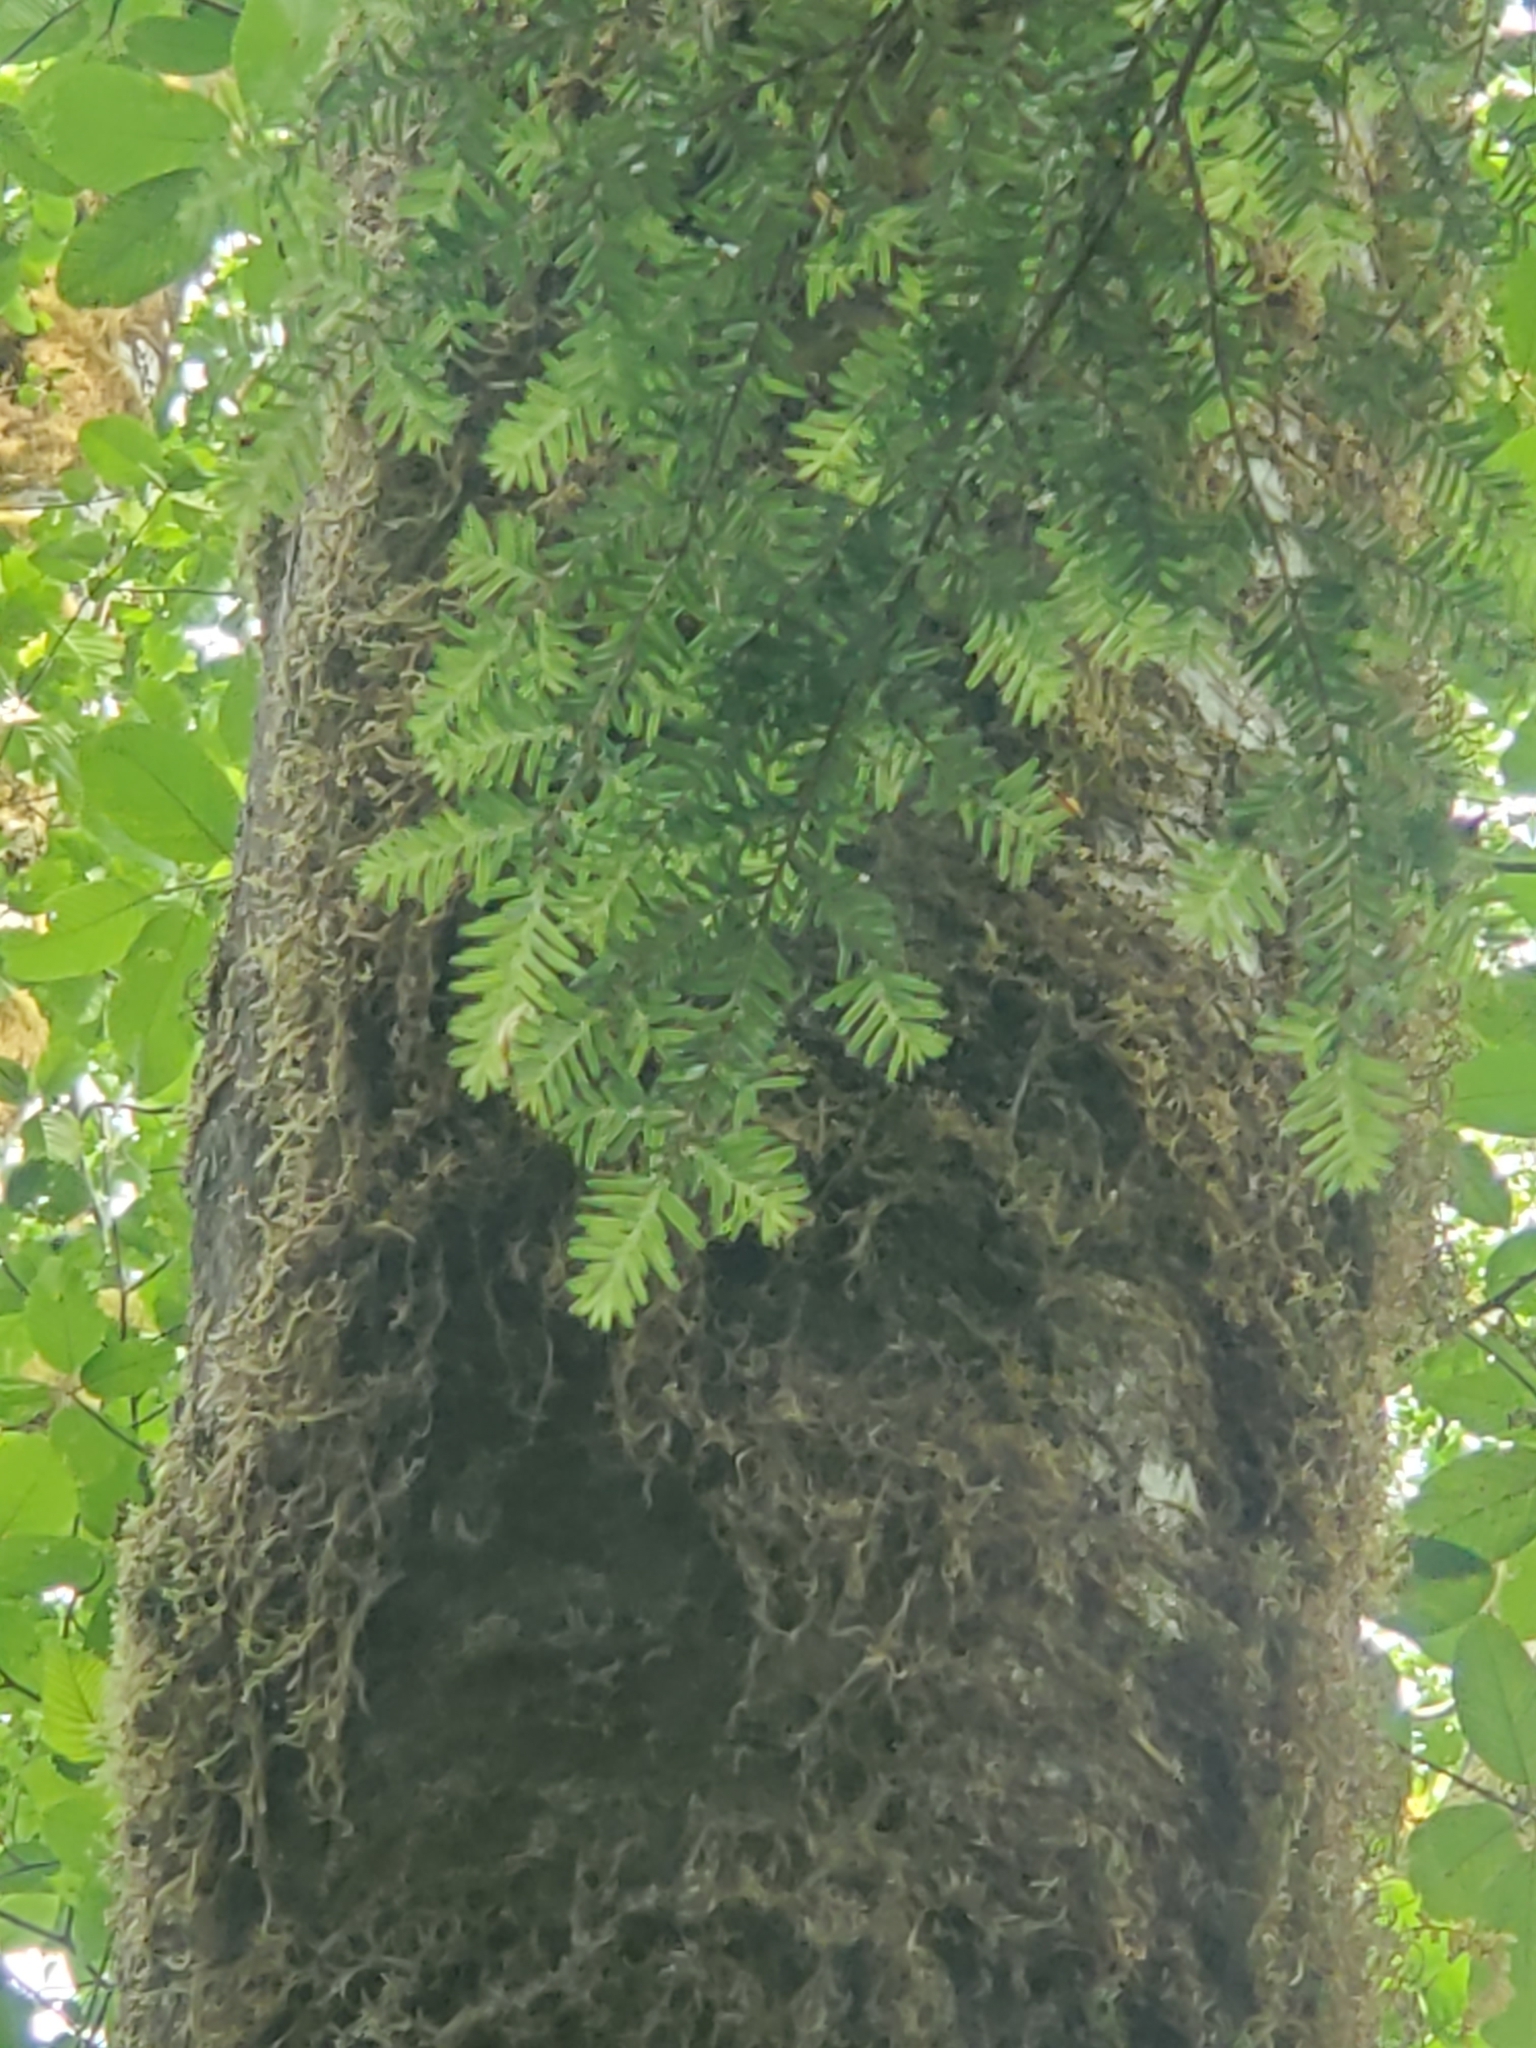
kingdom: Plantae
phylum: Tracheophyta
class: Pinopsida
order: Pinales
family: Pinaceae
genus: Tsuga
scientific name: Tsuga heterophylla
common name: Western hemlock
